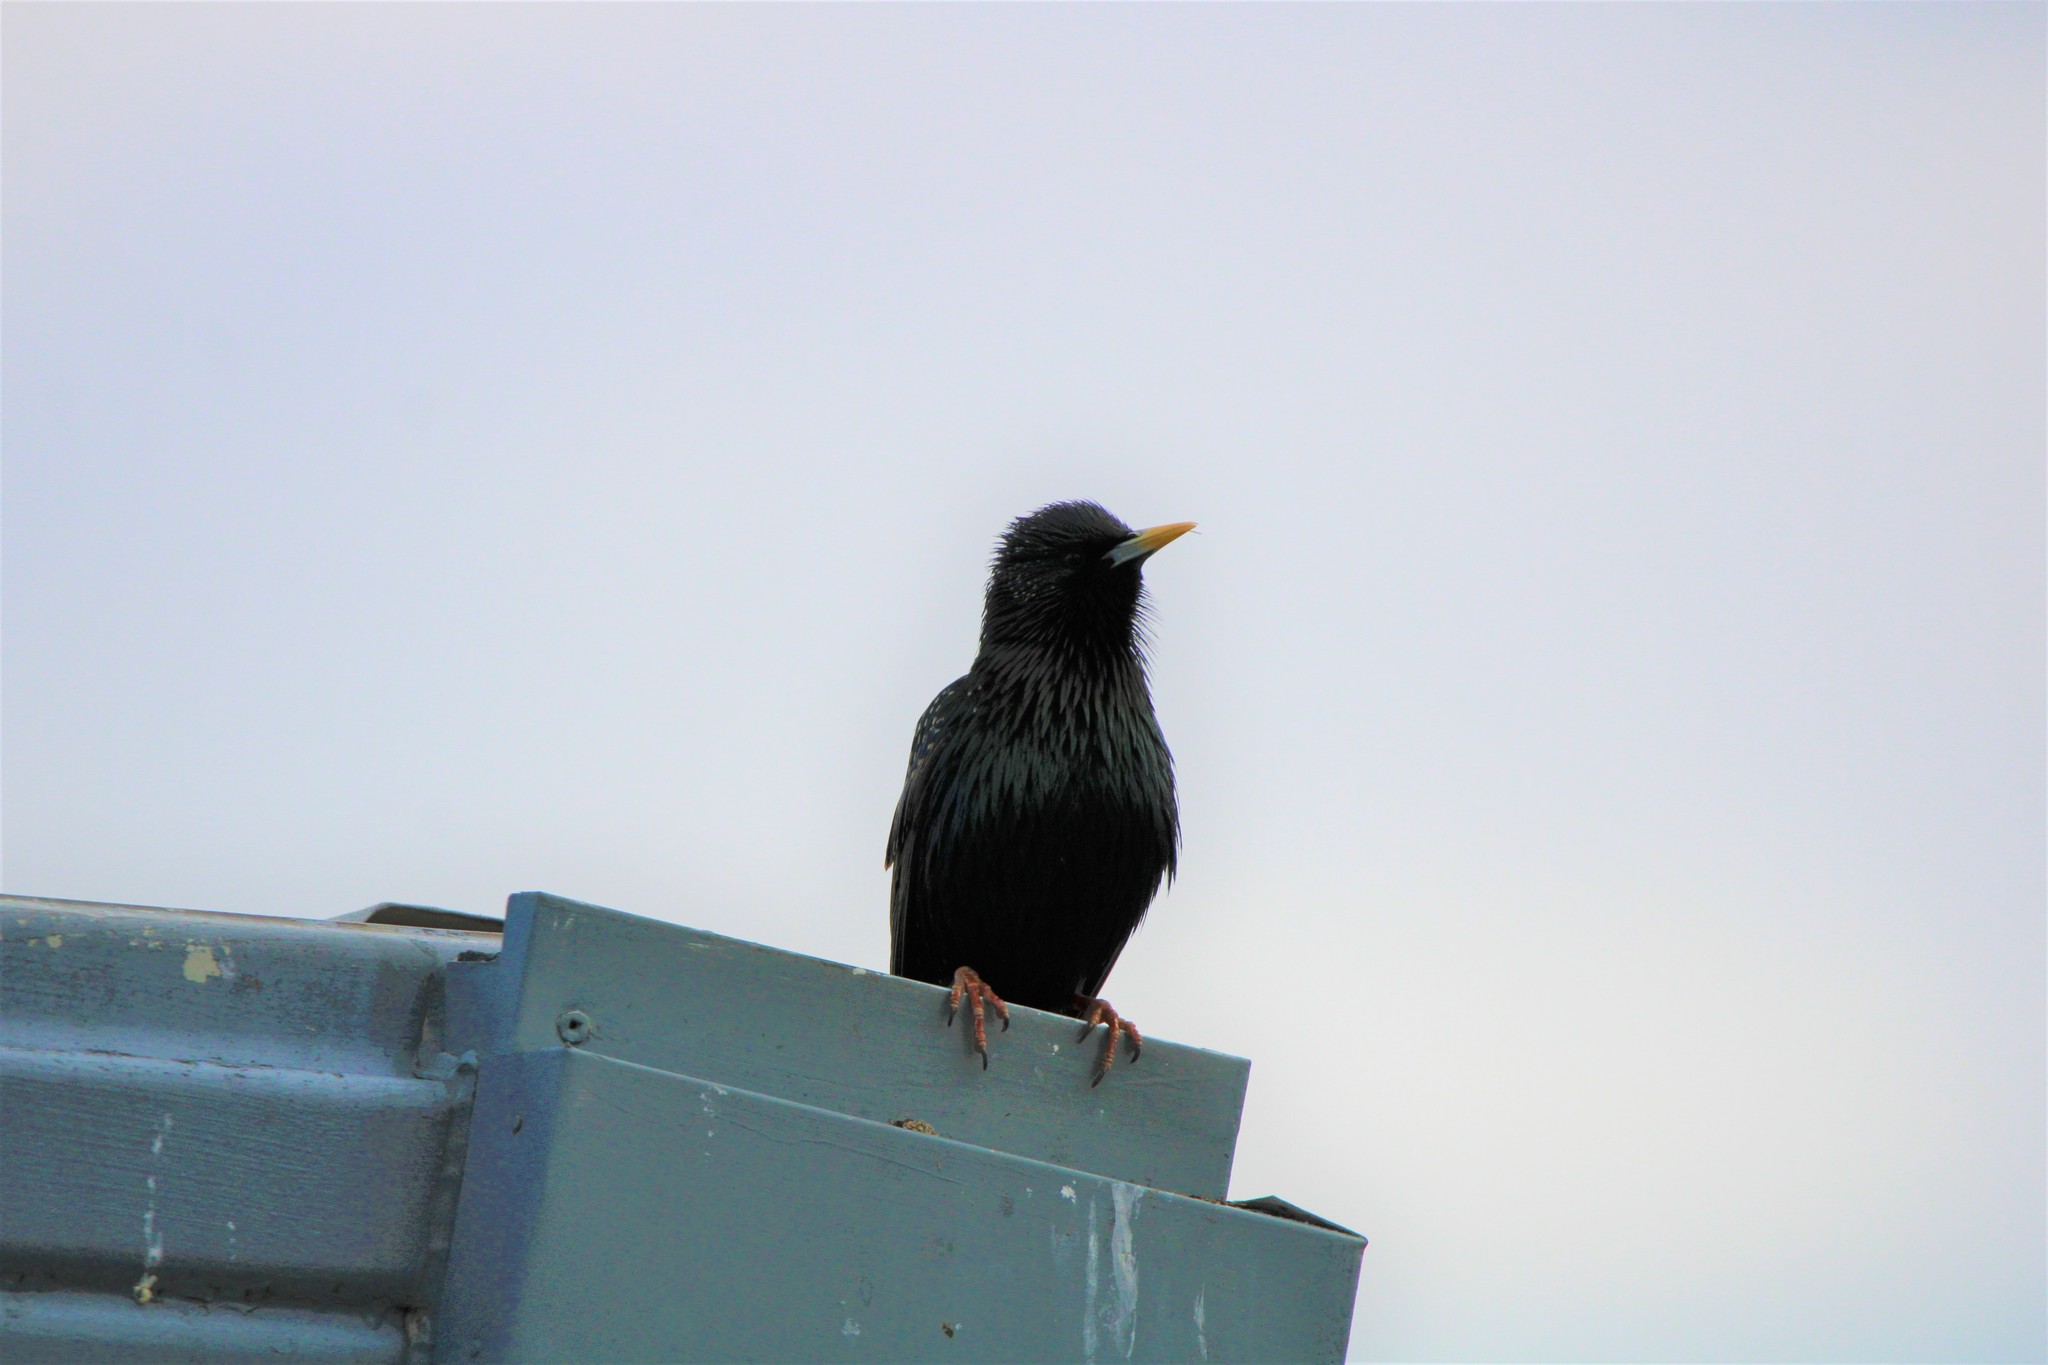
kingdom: Animalia
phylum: Chordata
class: Aves
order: Passeriformes
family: Sturnidae
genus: Sturnus
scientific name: Sturnus vulgaris
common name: Common starling
